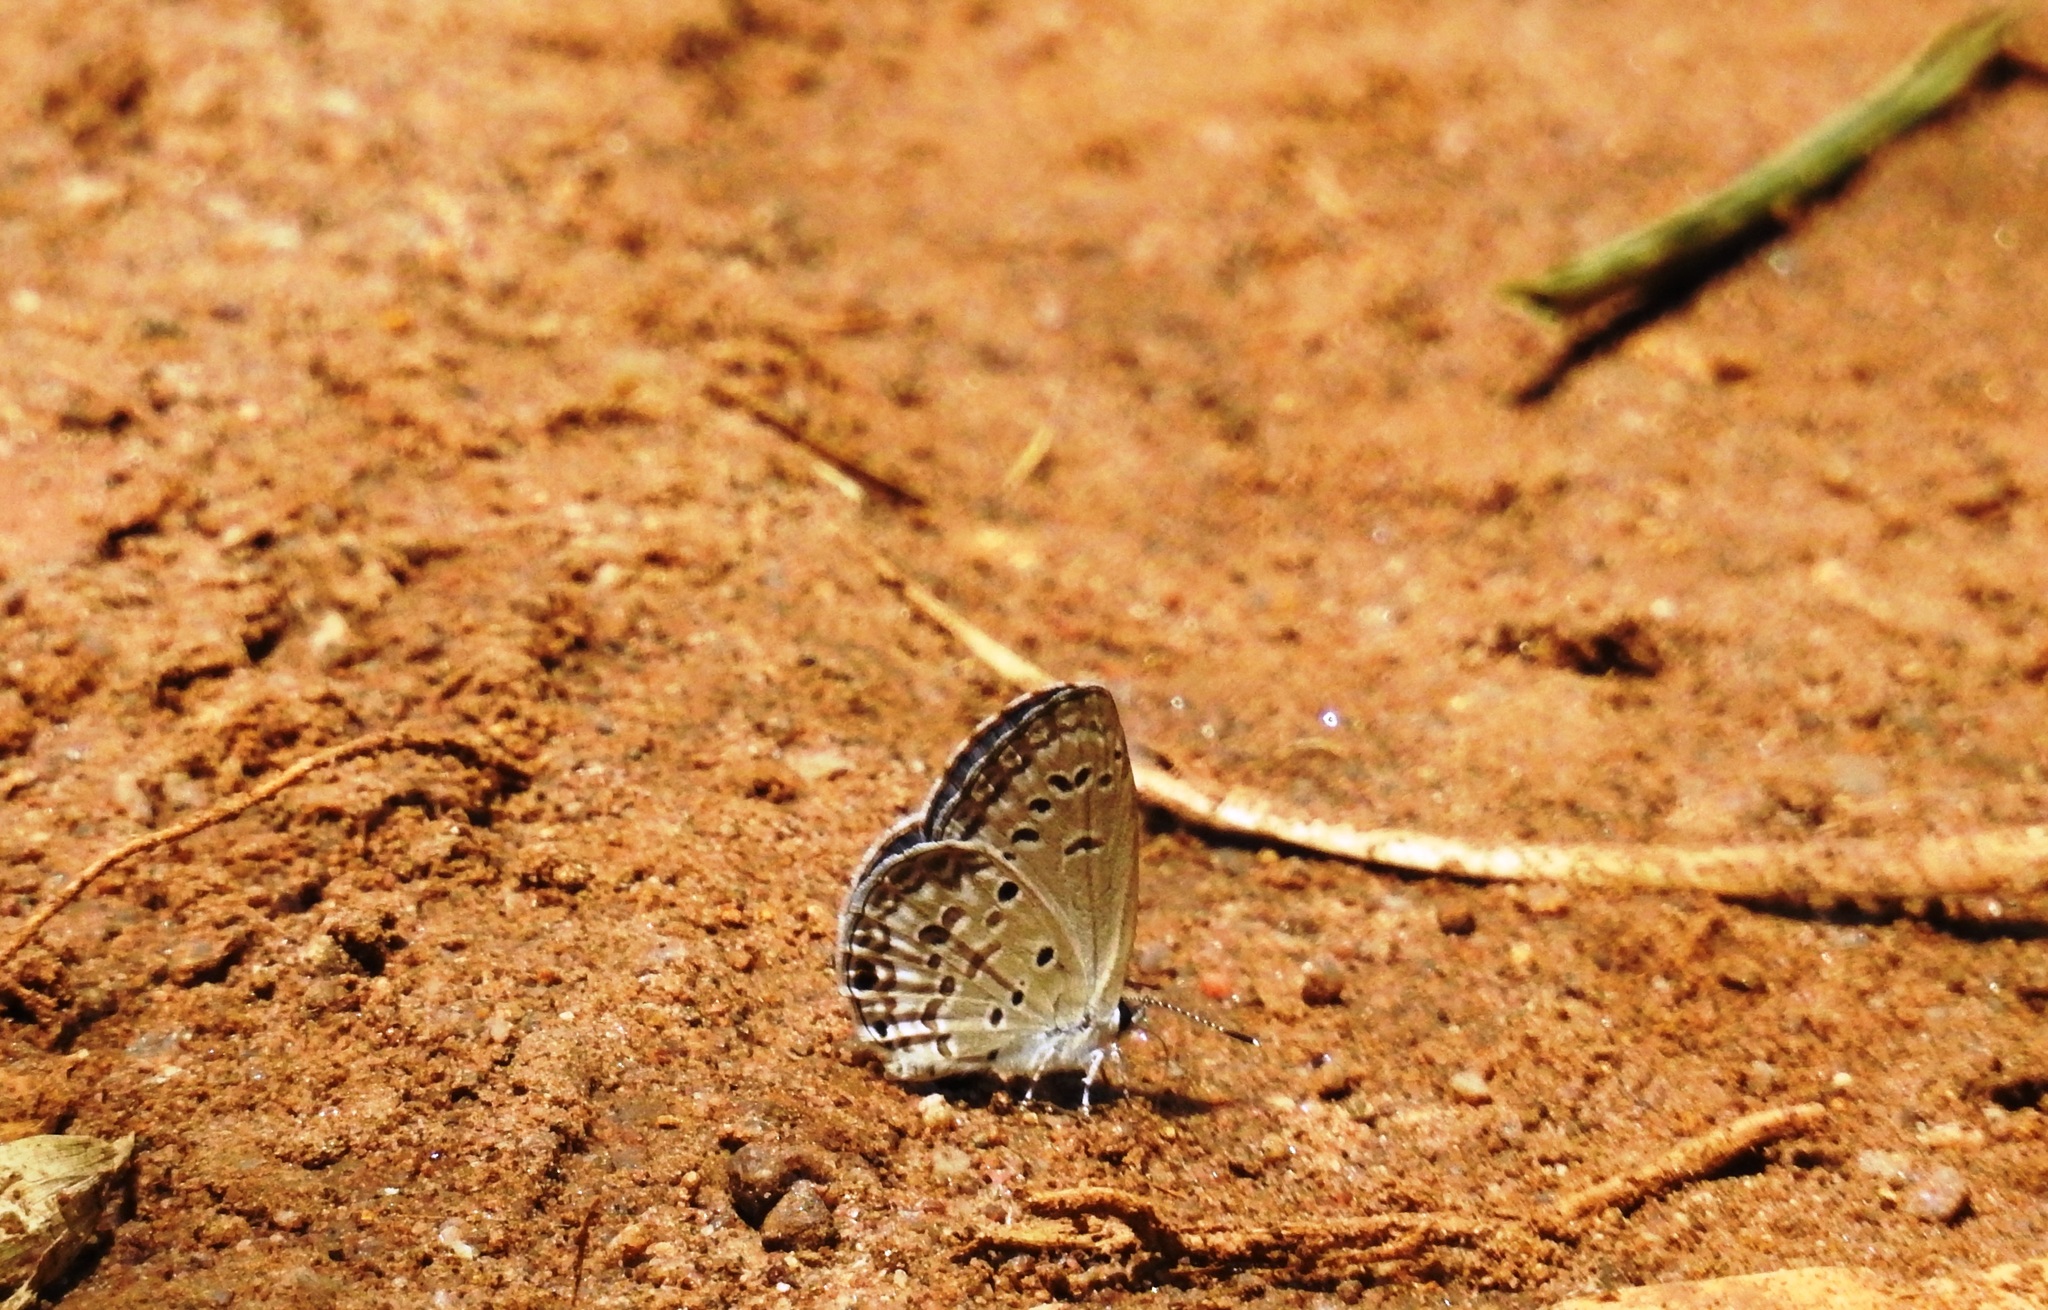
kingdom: Animalia
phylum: Arthropoda
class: Insecta
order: Lepidoptera
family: Lycaenidae
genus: Chilades
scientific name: Chilades laius
